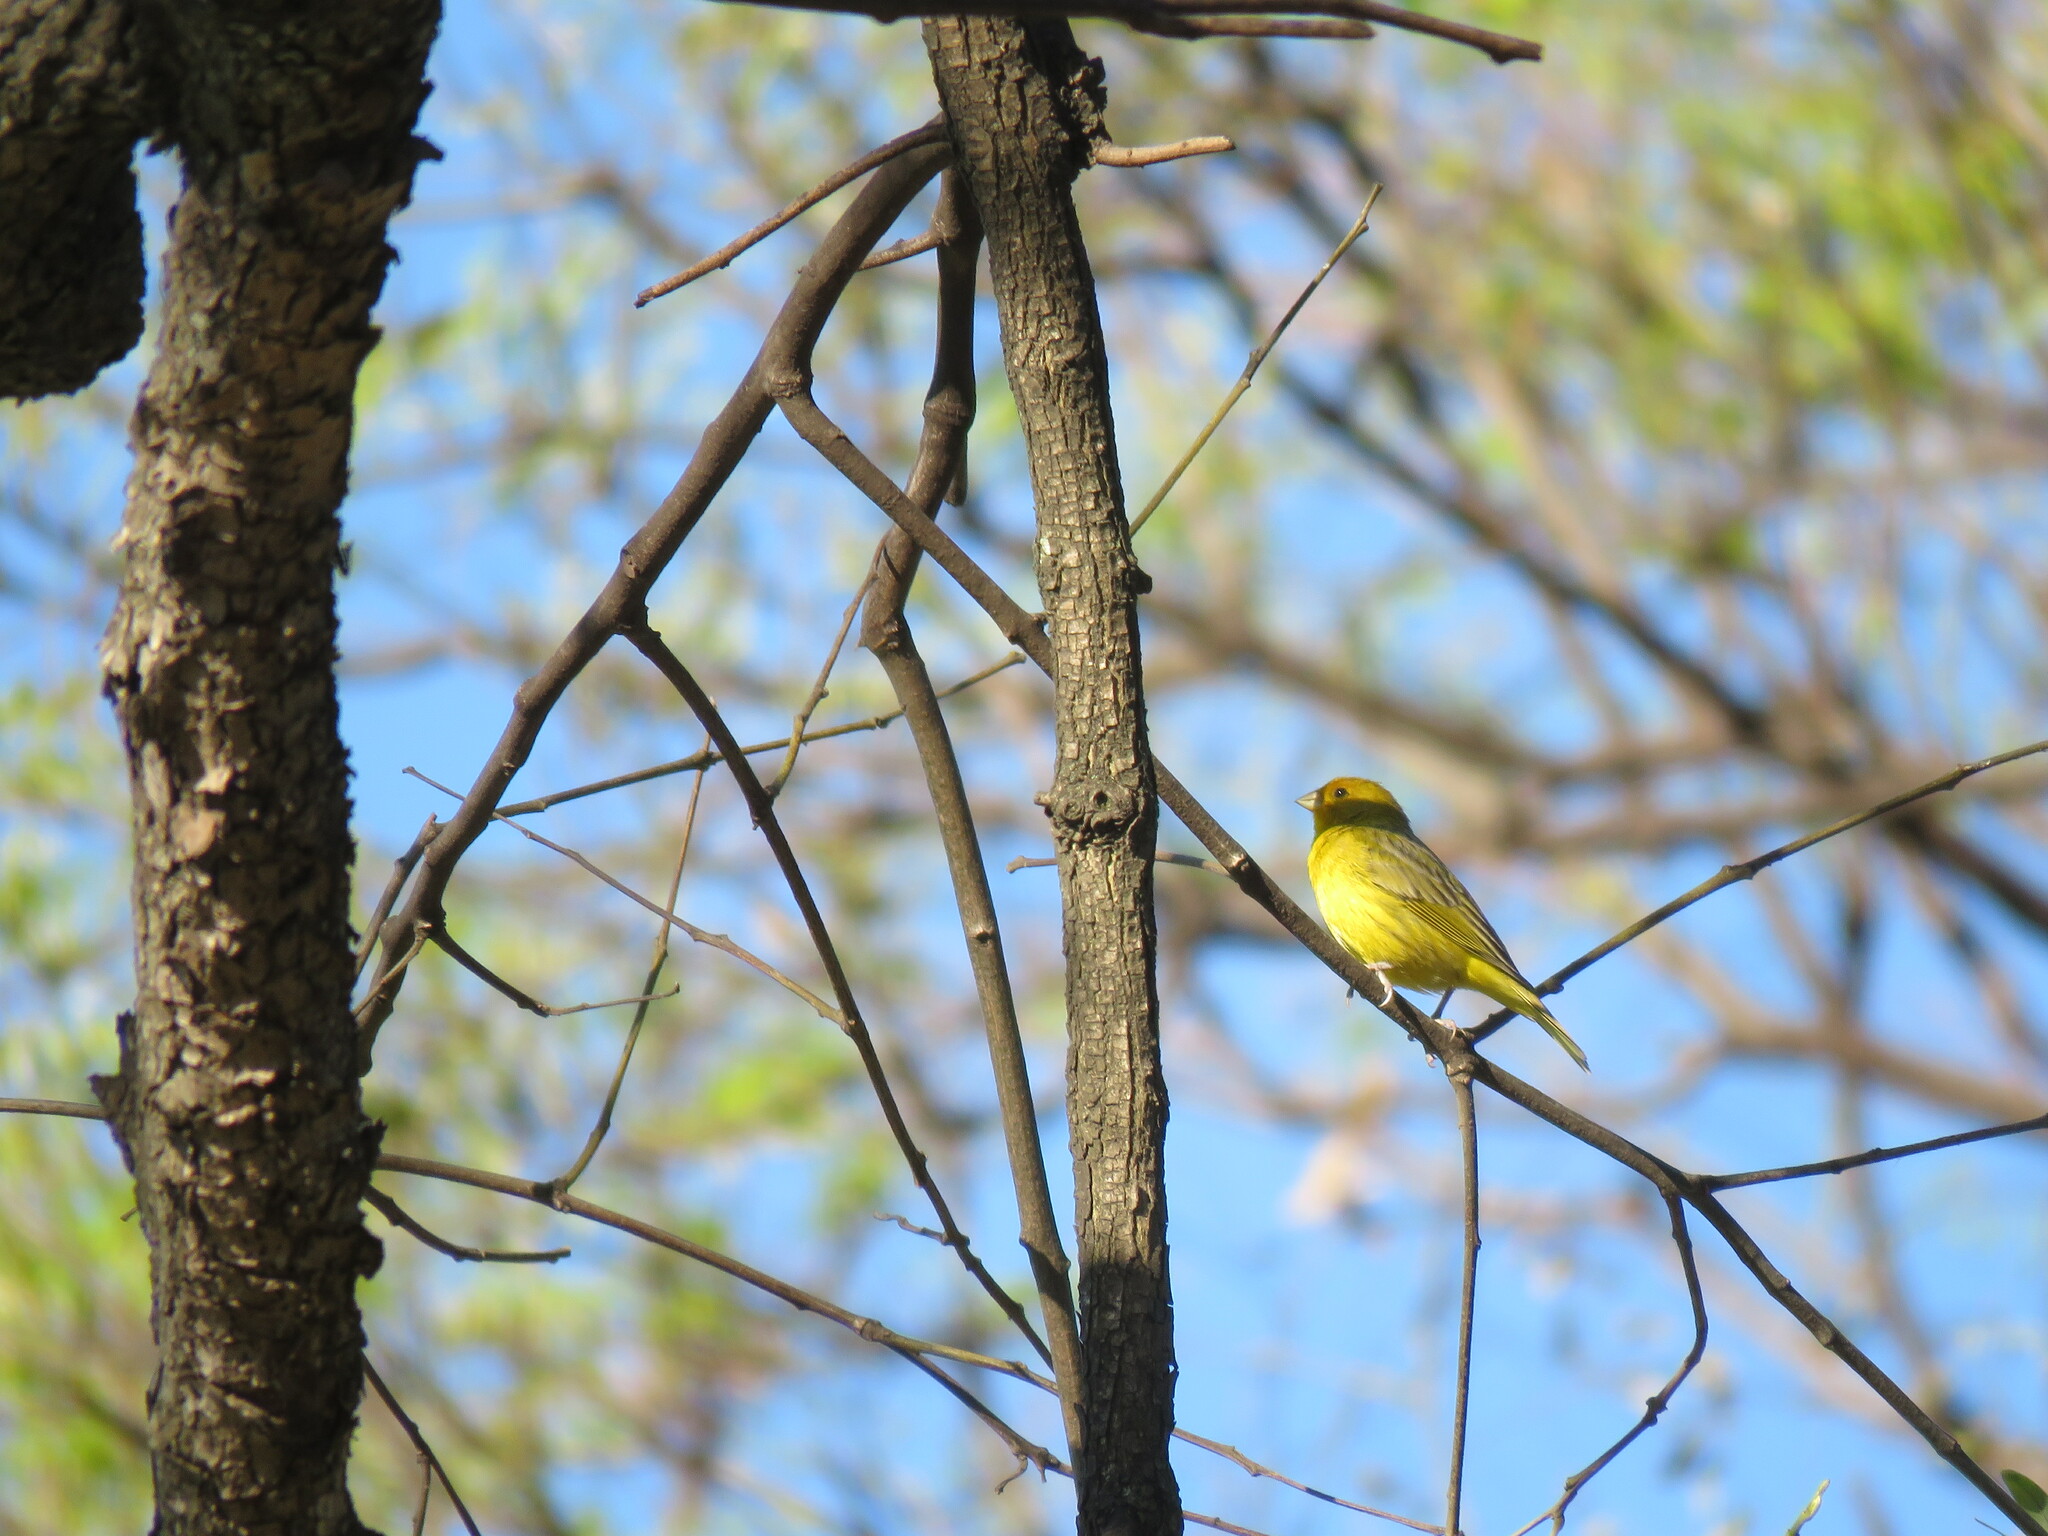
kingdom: Animalia
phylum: Chordata
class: Aves
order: Passeriformes
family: Thraupidae
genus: Sicalis
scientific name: Sicalis flaveola
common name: Saffron finch
